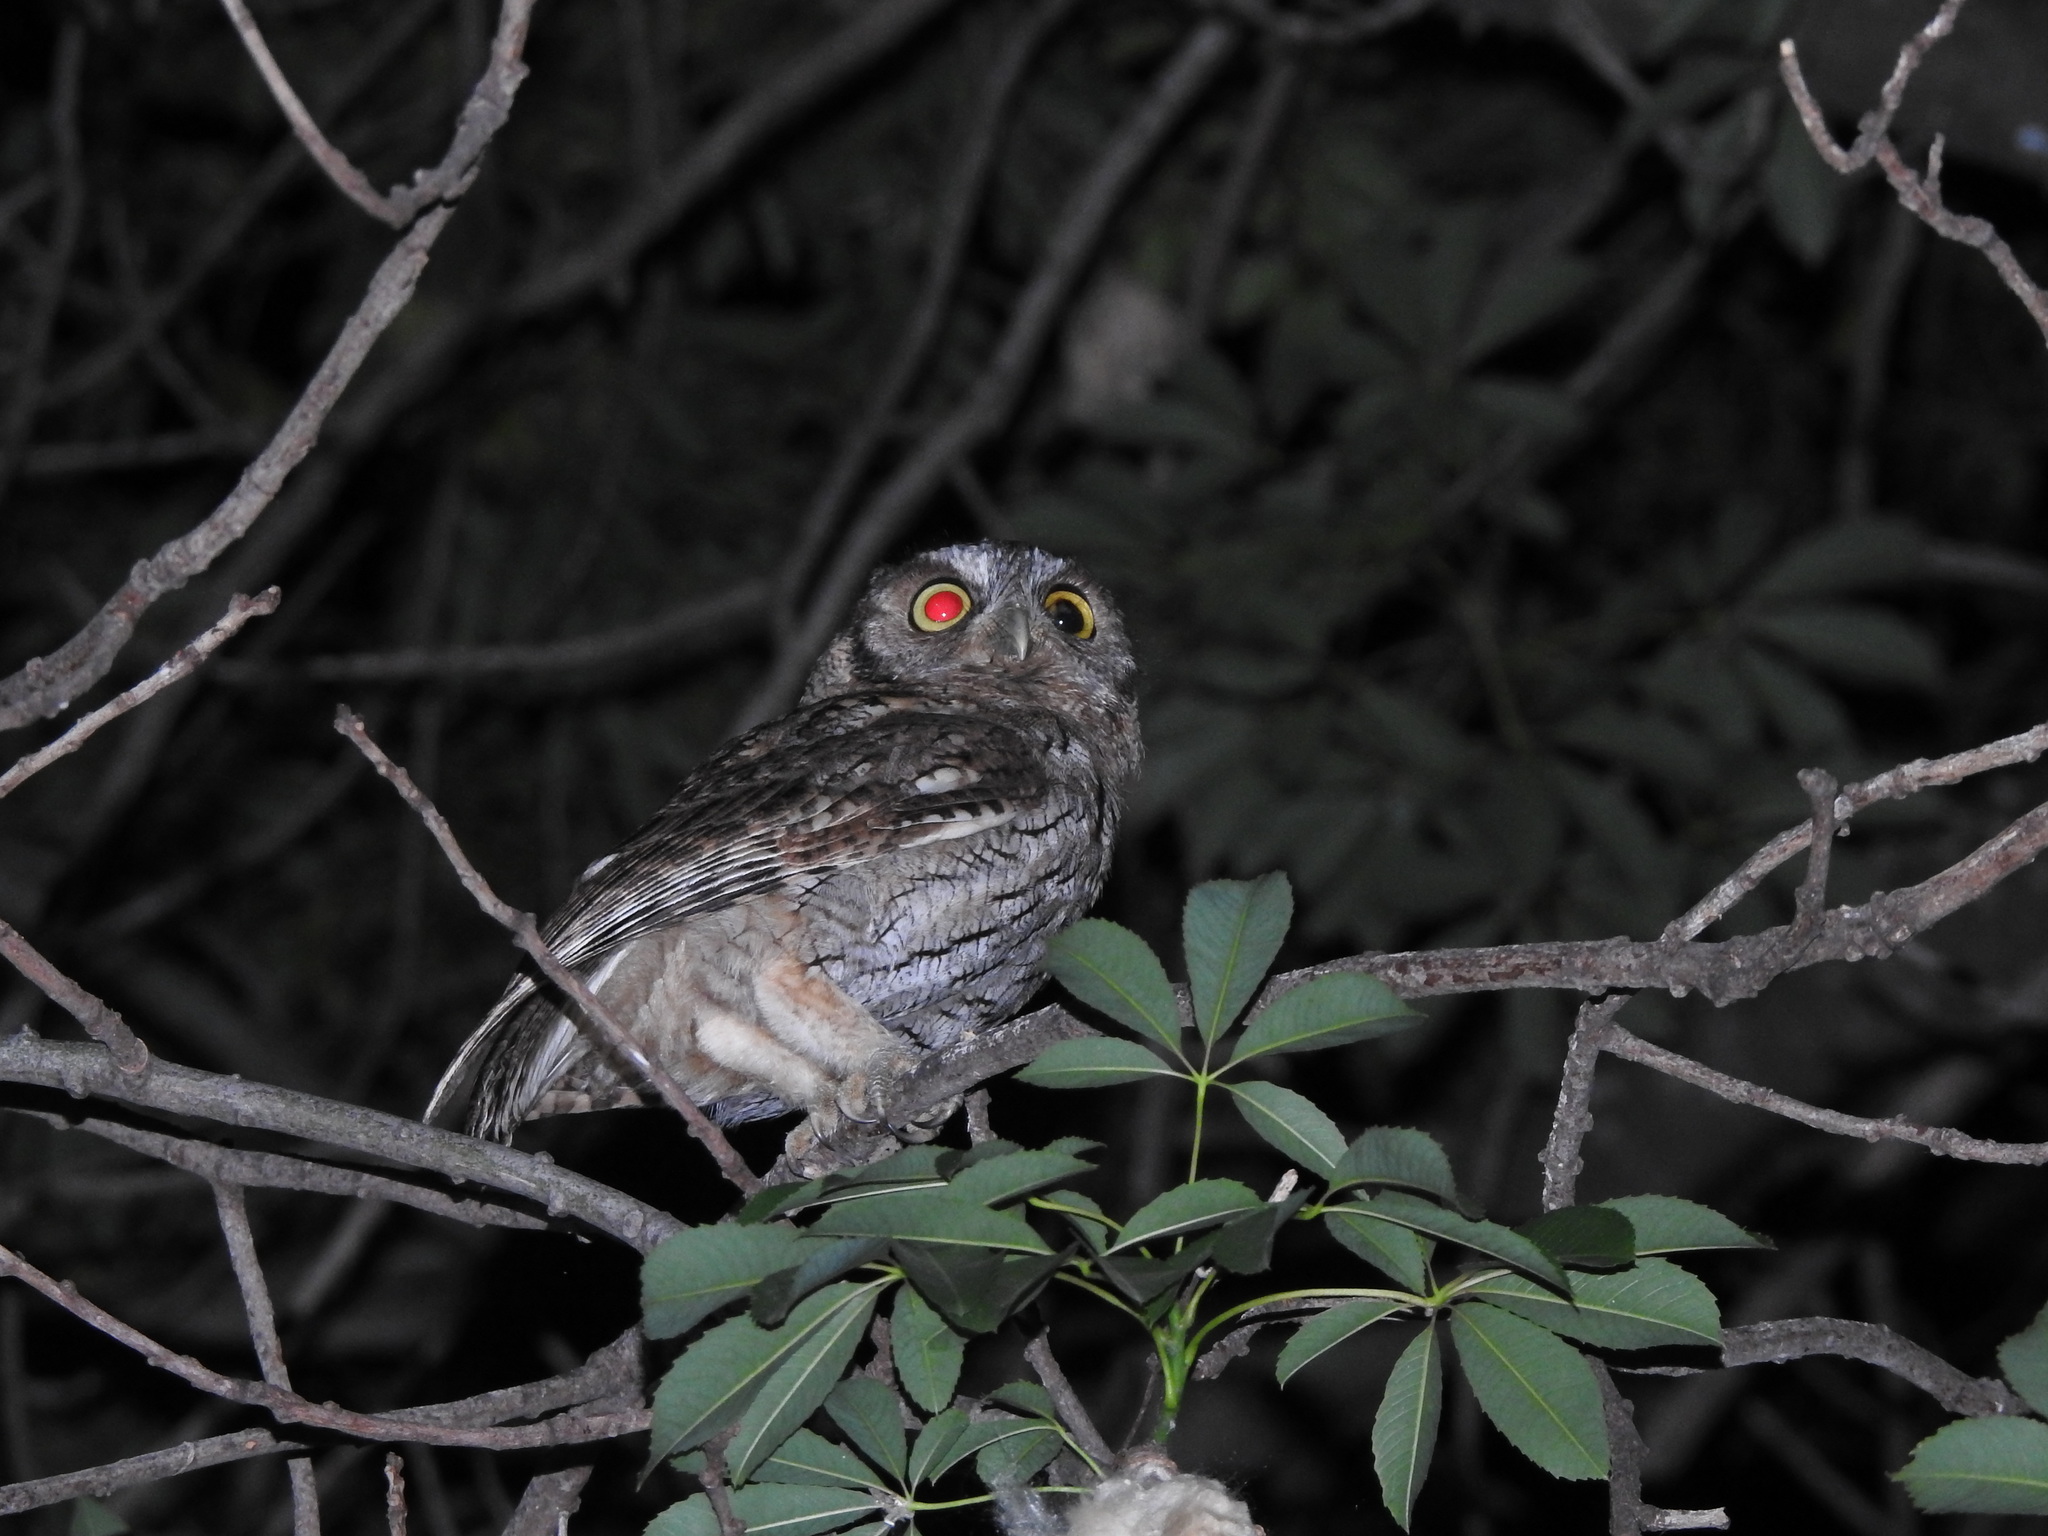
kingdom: Animalia
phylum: Chordata
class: Aves
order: Strigiformes
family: Strigidae
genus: Megascops
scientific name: Megascops choliba
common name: Tropical screech-owl
